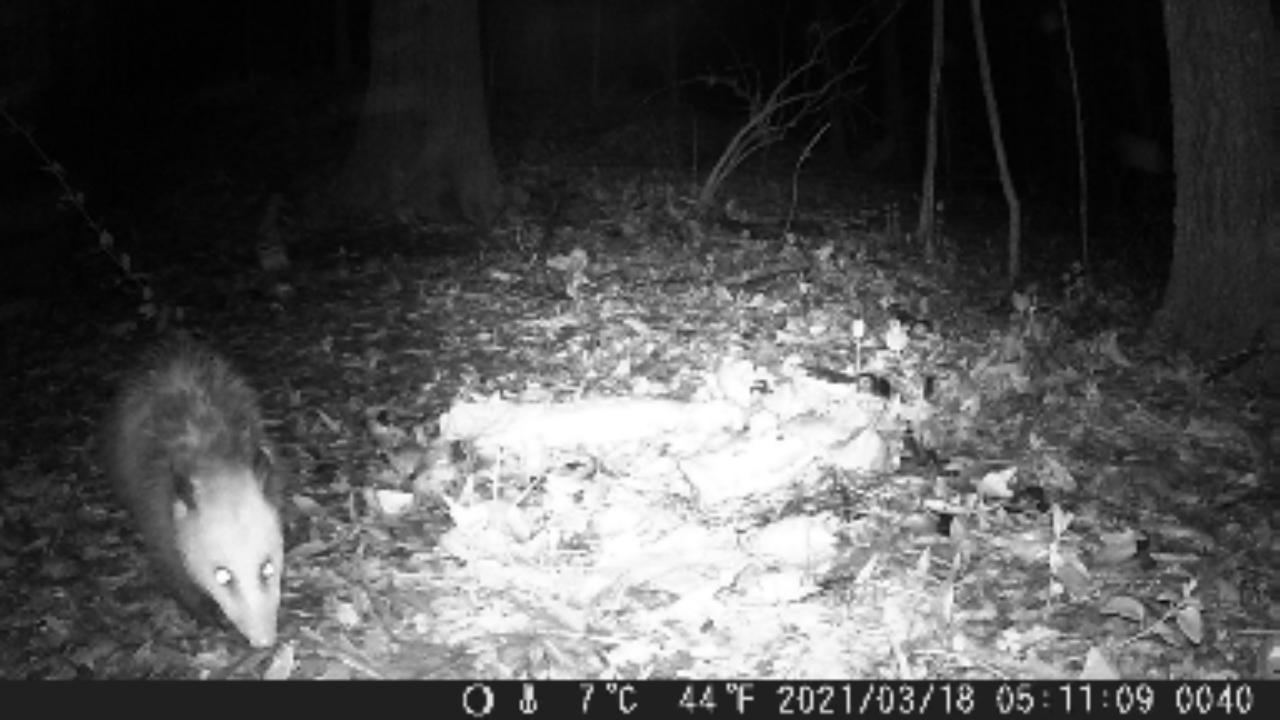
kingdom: Animalia
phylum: Chordata
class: Mammalia
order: Didelphimorphia
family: Didelphidae
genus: Didelphis
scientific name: Didelphis virginiana
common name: Virginia opossum
